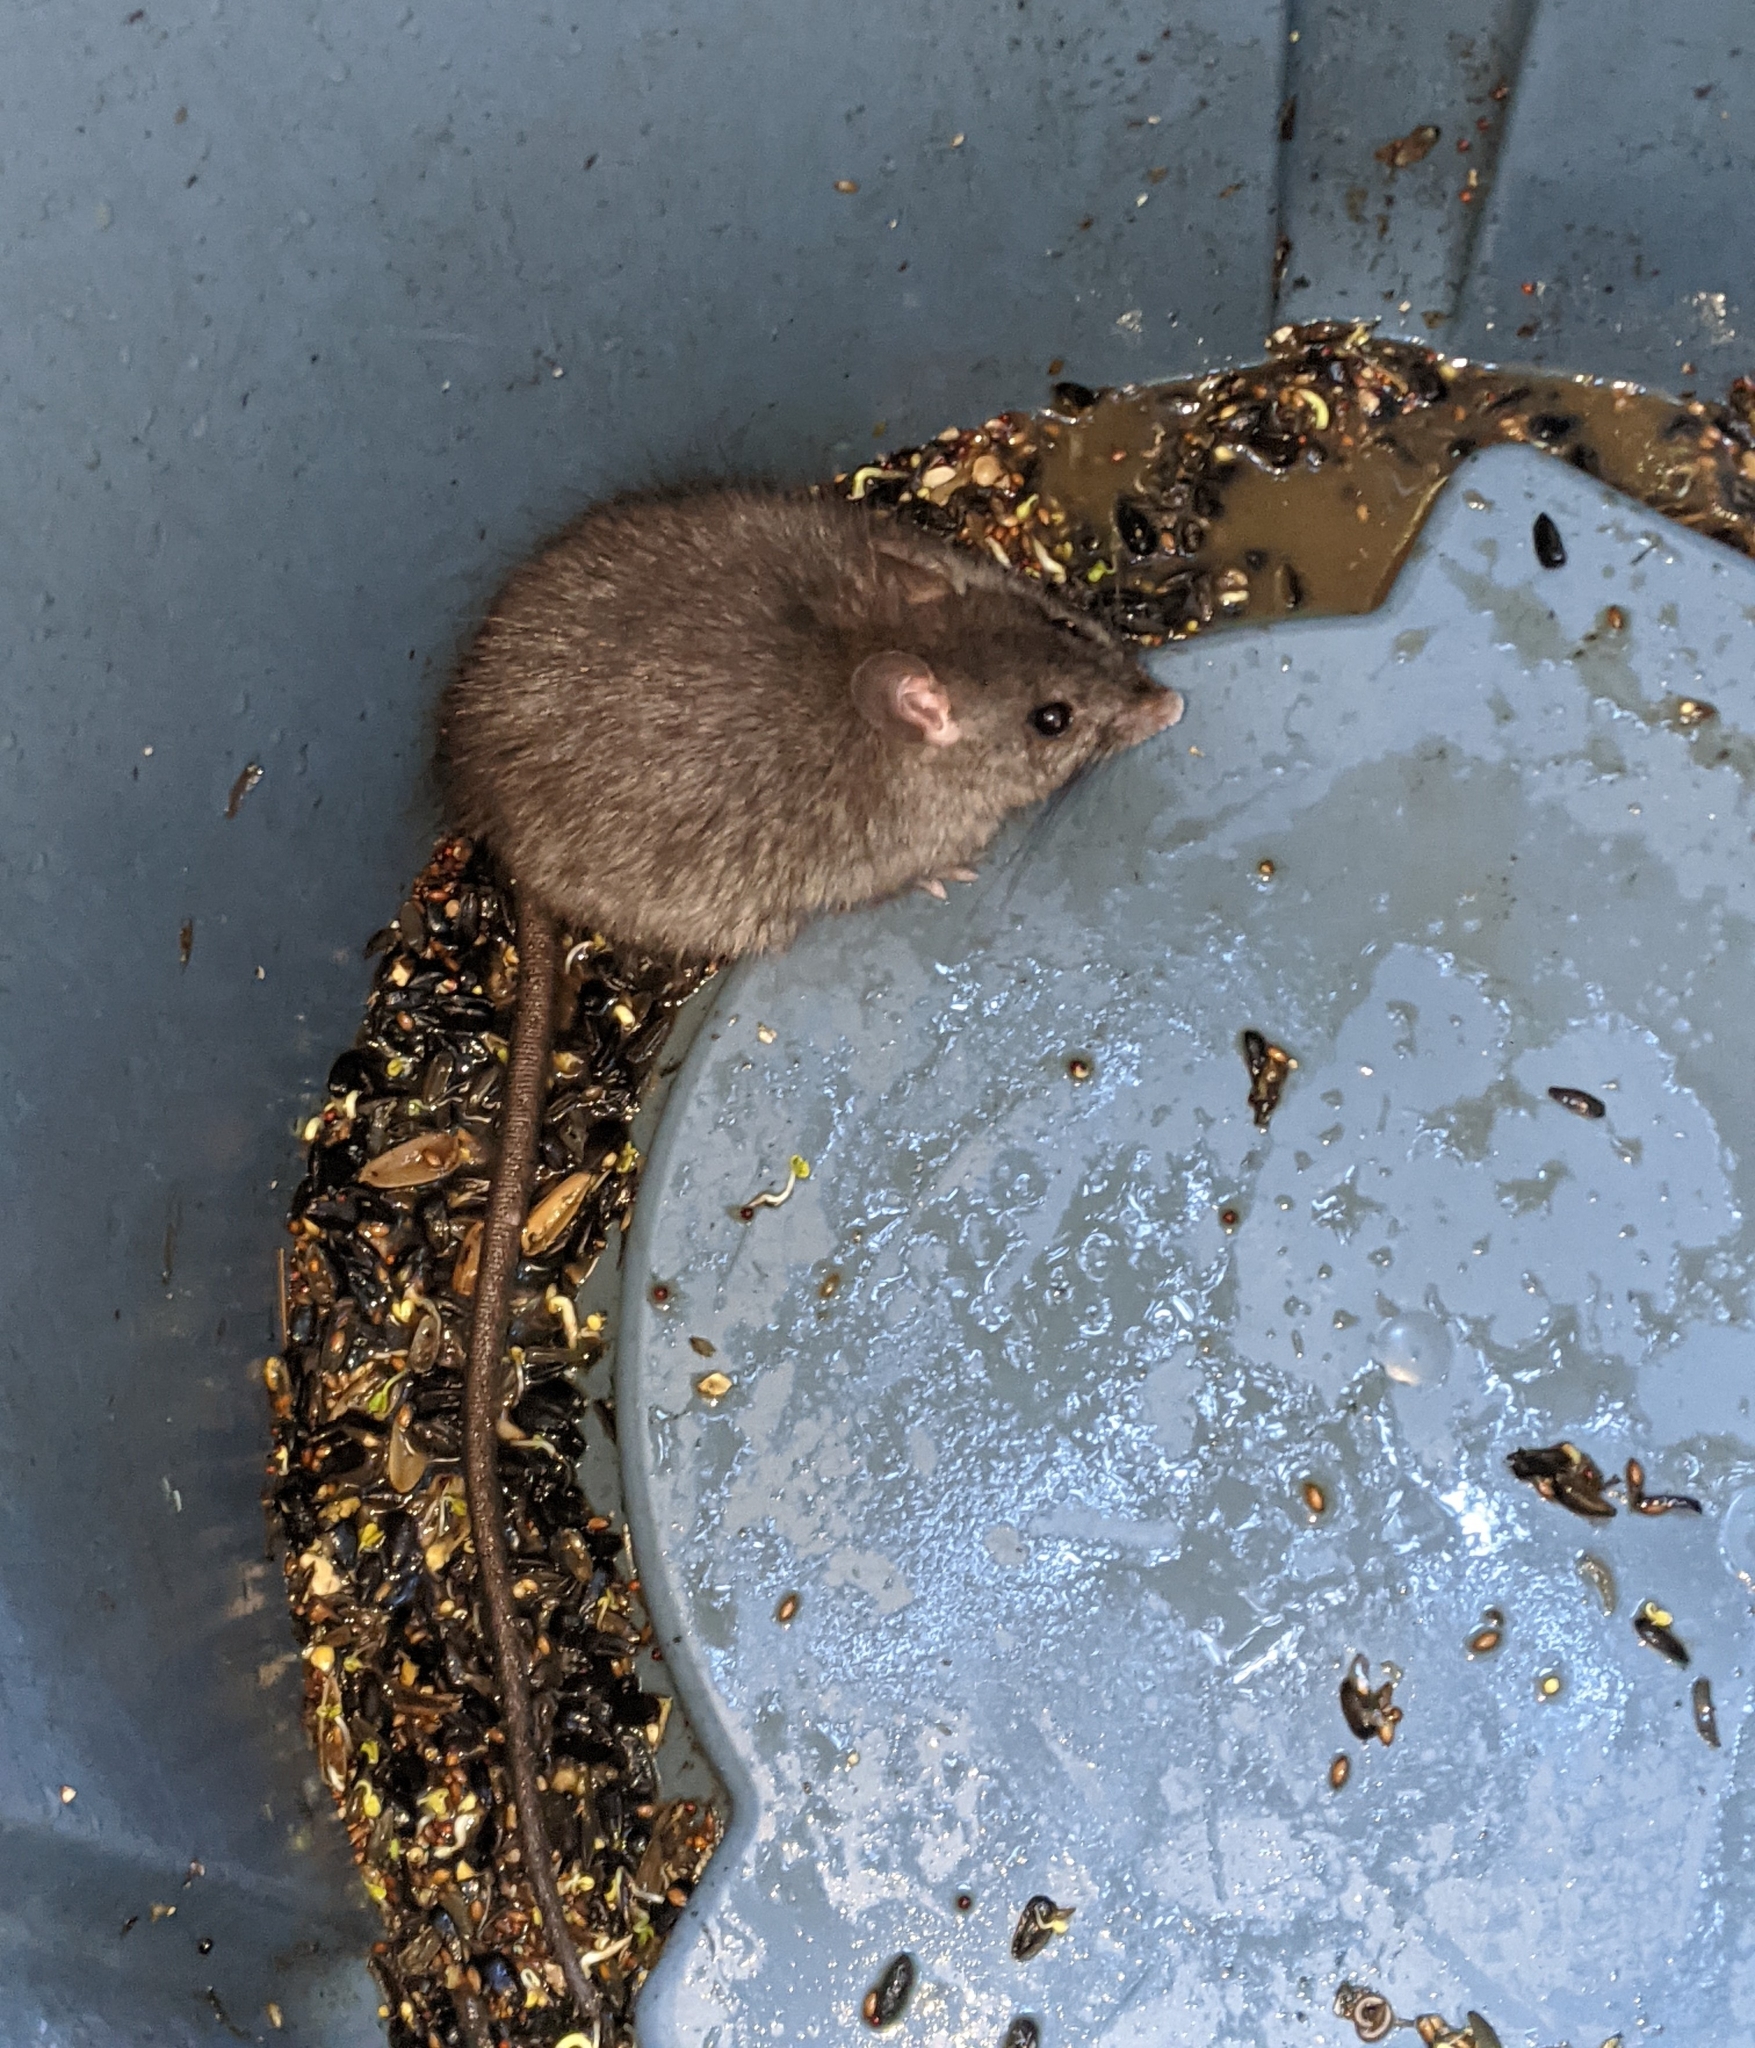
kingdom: Animalia
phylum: Chordata
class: Mammalia
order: Rodentia
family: Muridae
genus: Rattus
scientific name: Rattus rattus
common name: Black rat
